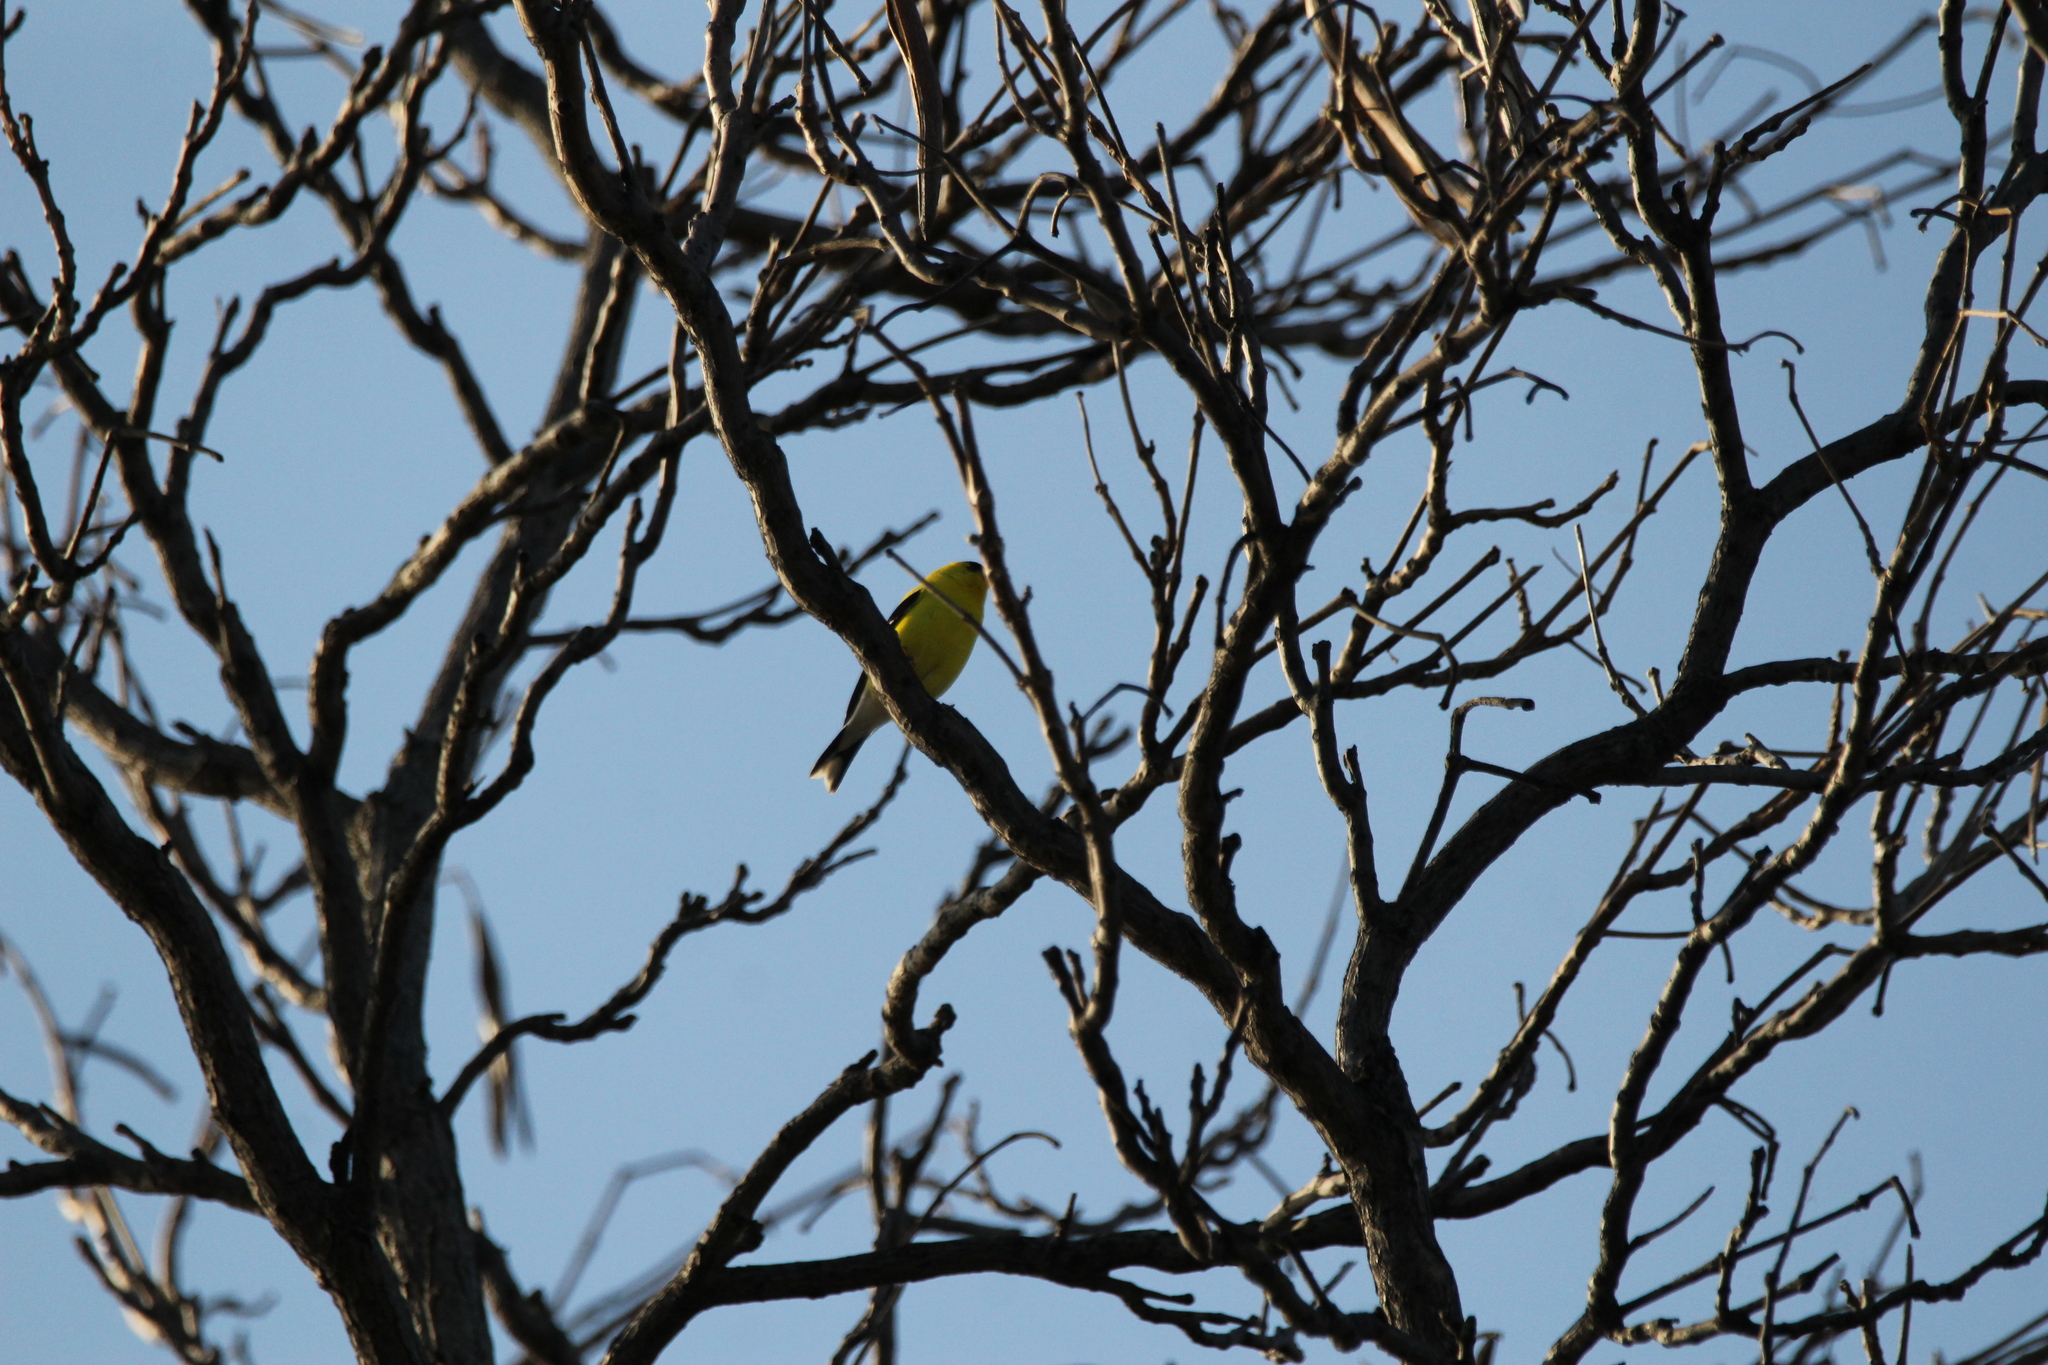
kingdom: Animalia
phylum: Chordata
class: Aves
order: Passeriformes
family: Fringillidae
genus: Spinus
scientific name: Spinus tristis
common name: American goldfinch
